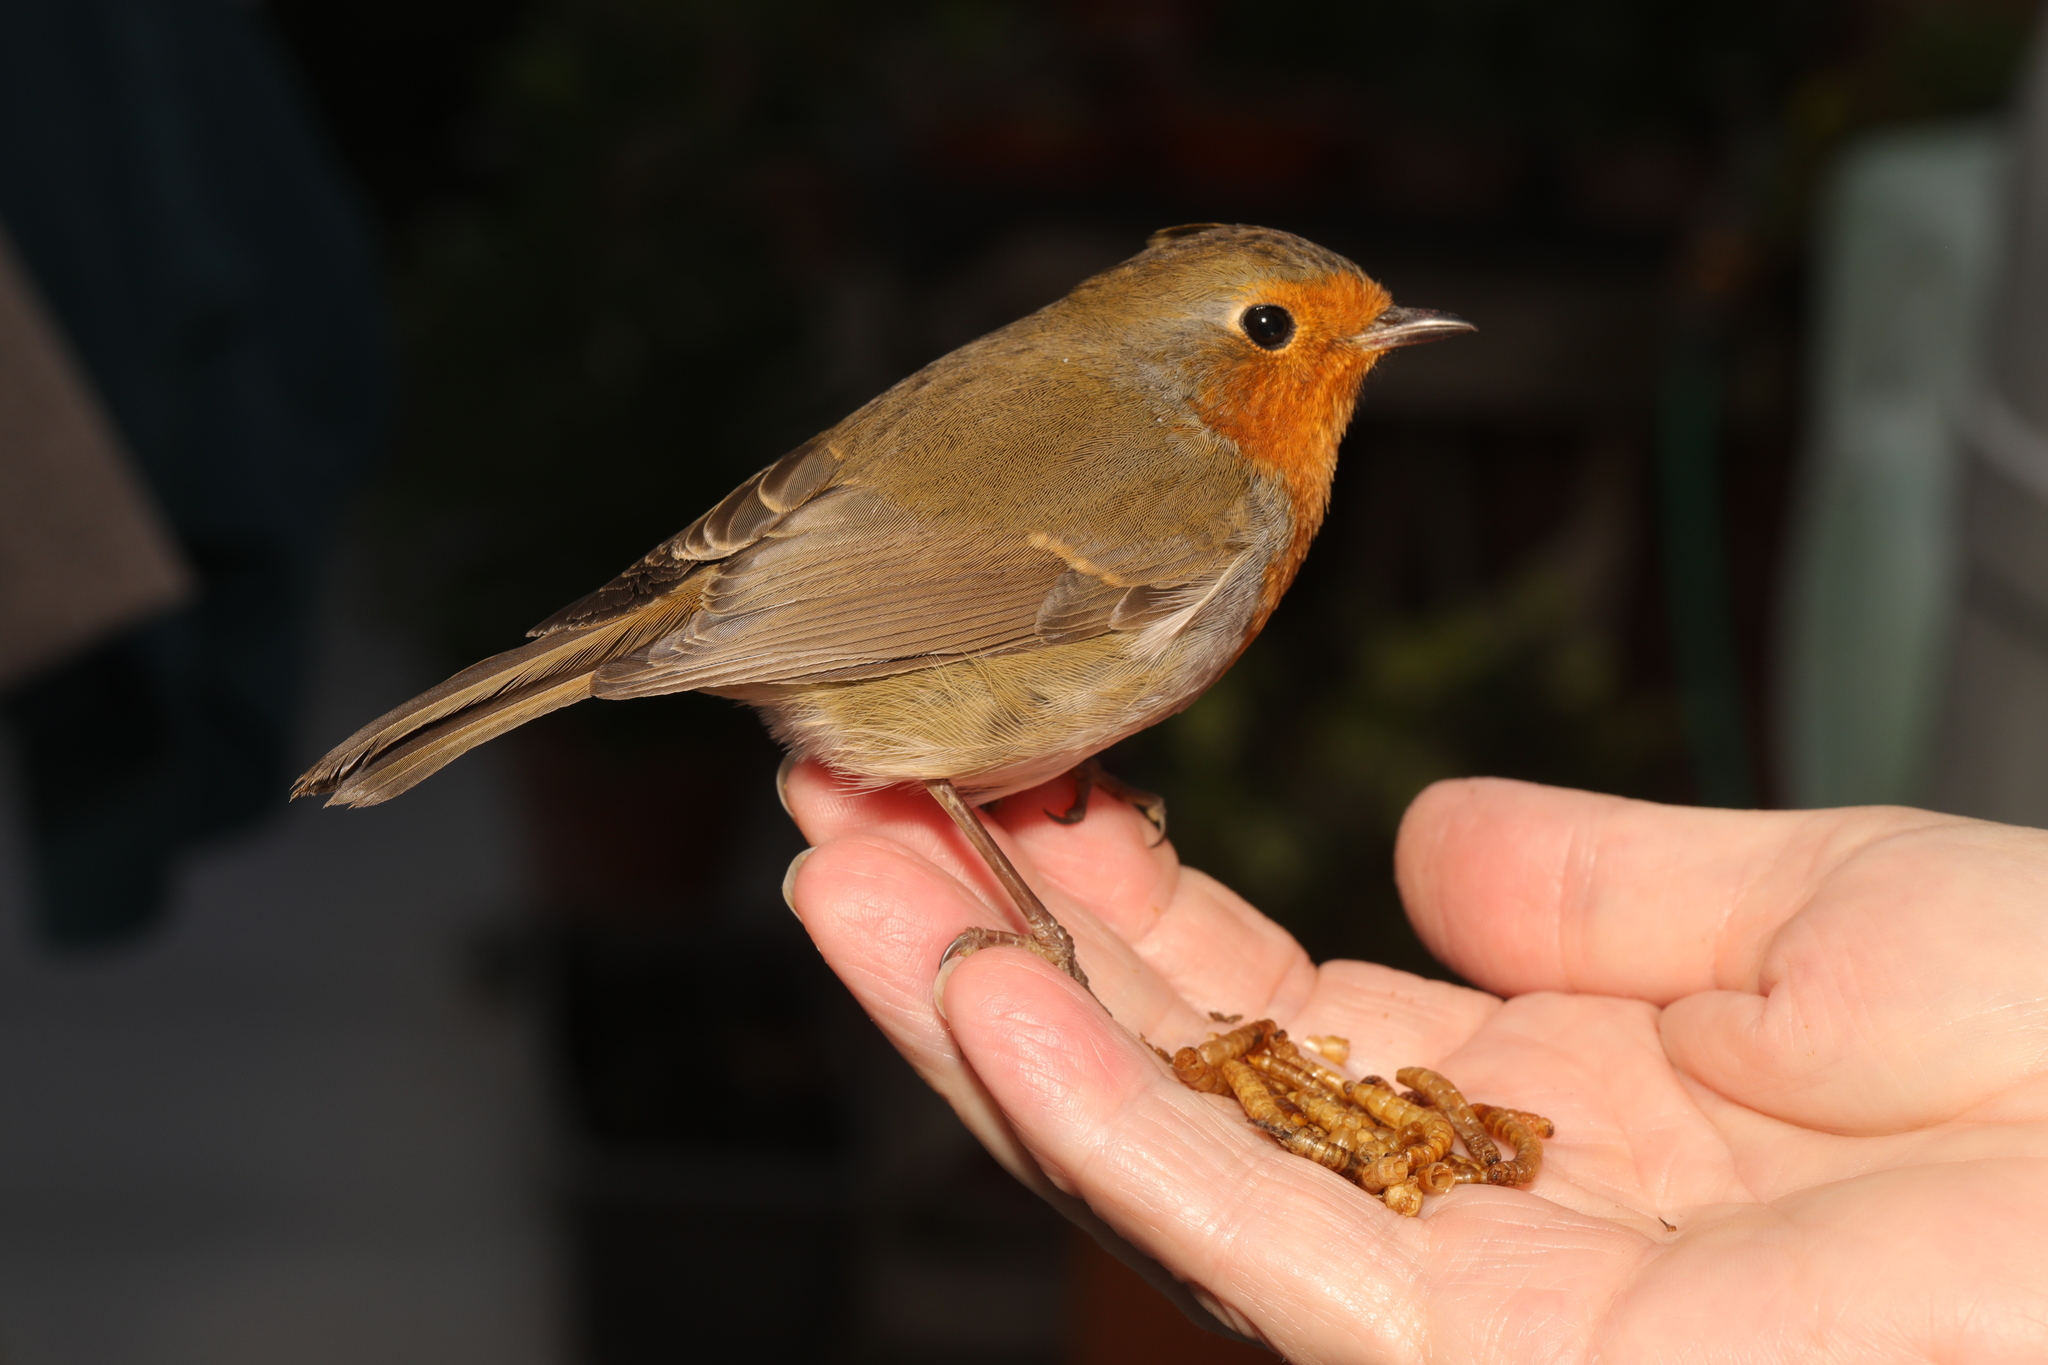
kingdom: Animalia
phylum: Chordata
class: Aves
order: Passeriformes
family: Muscicapidae
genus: Erithacus
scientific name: Erithacus rubecula
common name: European robin
